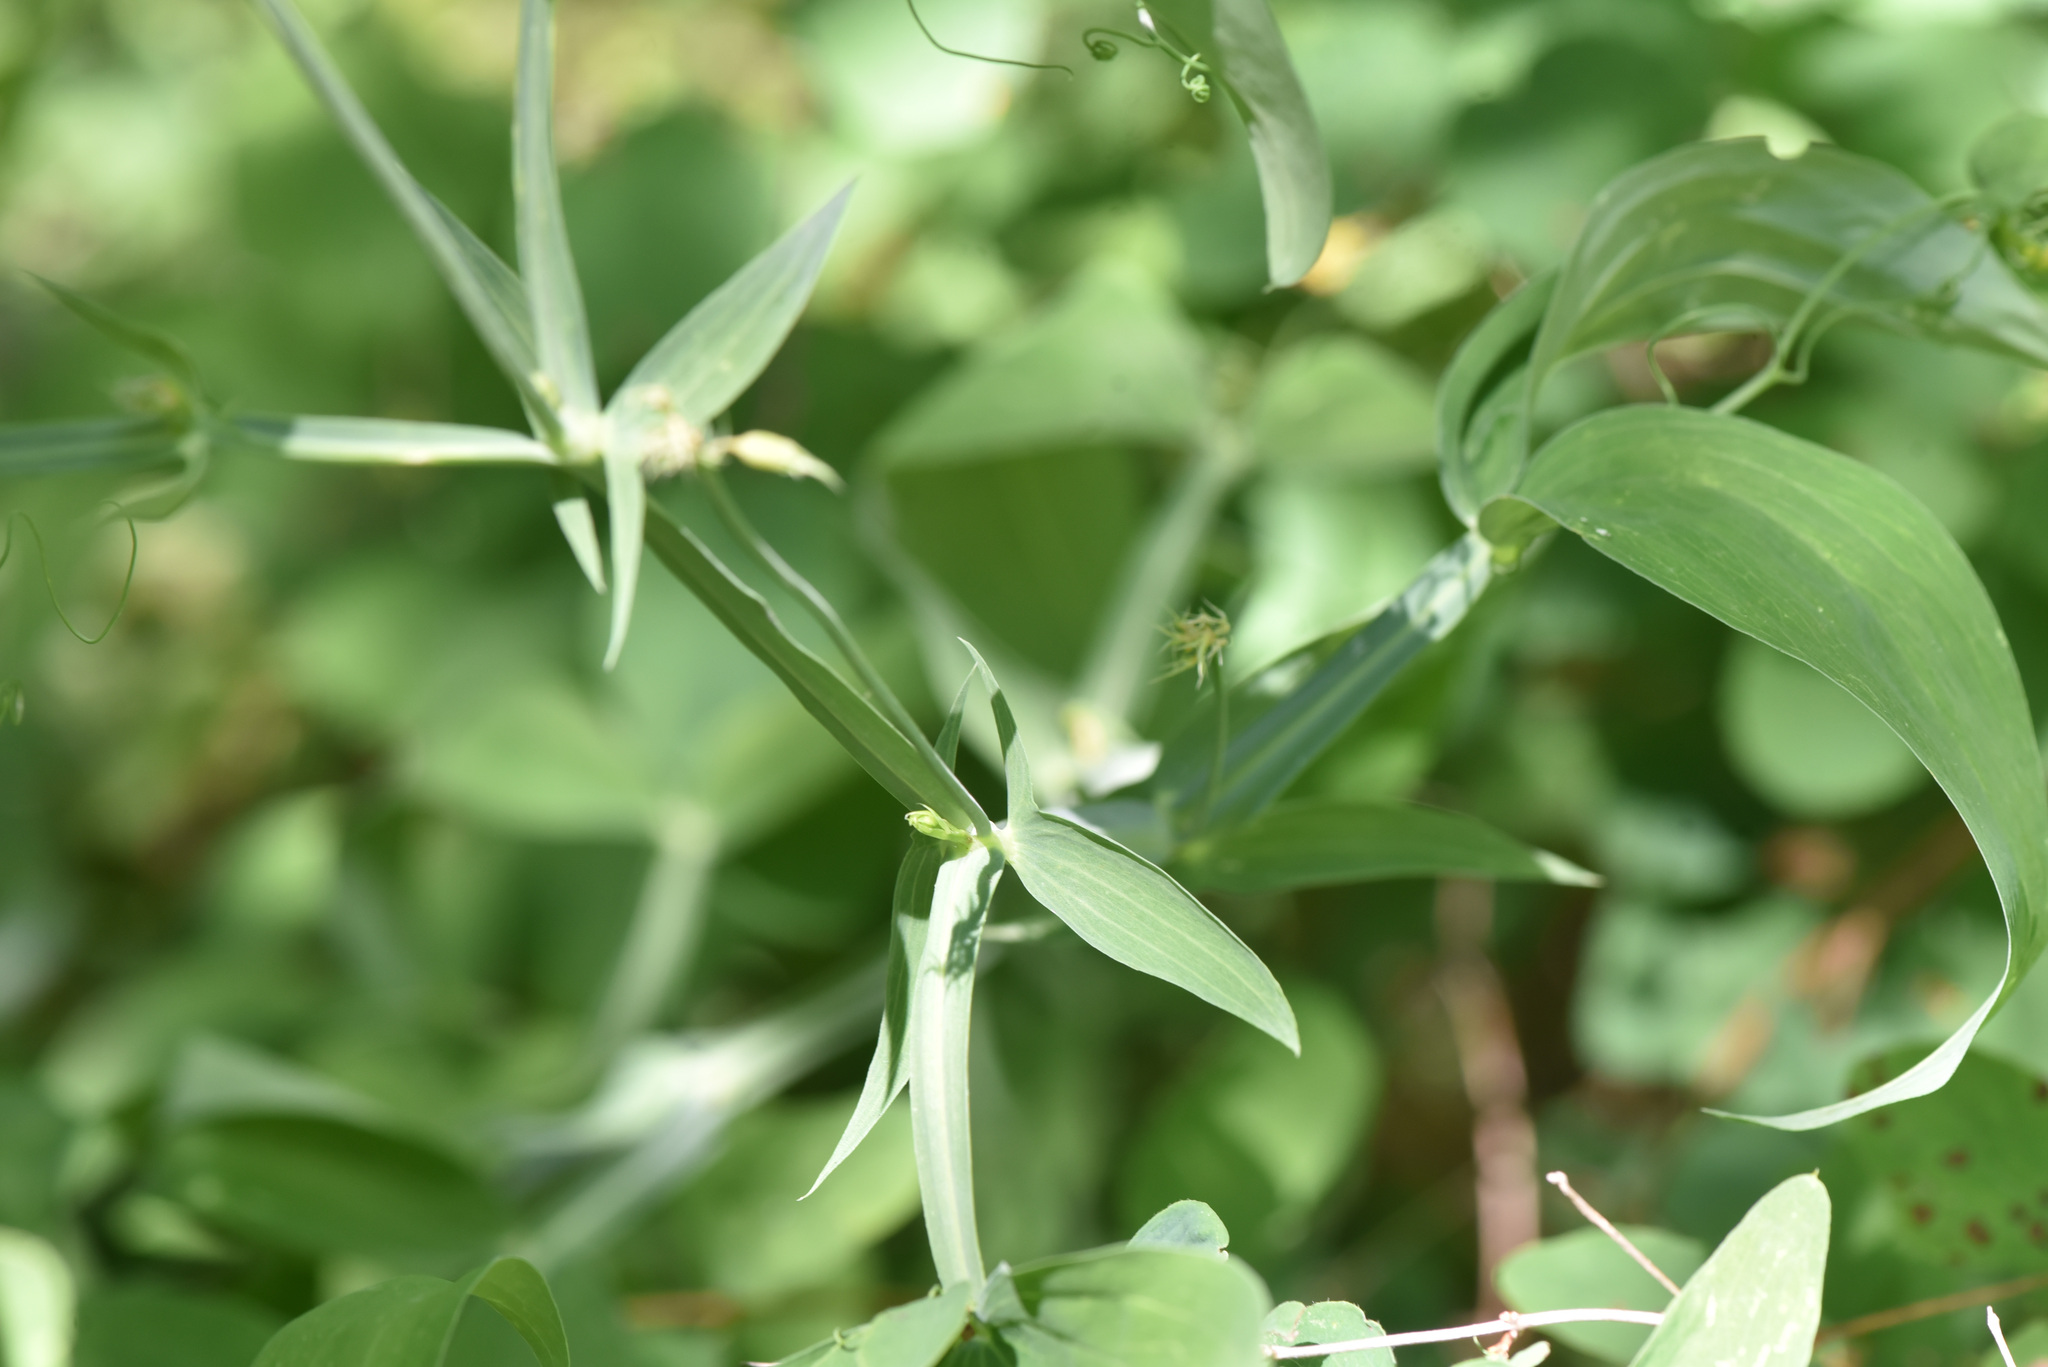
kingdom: Plantae
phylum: Tracheophyta
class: Magnoliopsida
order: Fabales
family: Fabaceae
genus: Lathyrus
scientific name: Lathyrus latifolius
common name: Perennial pea
